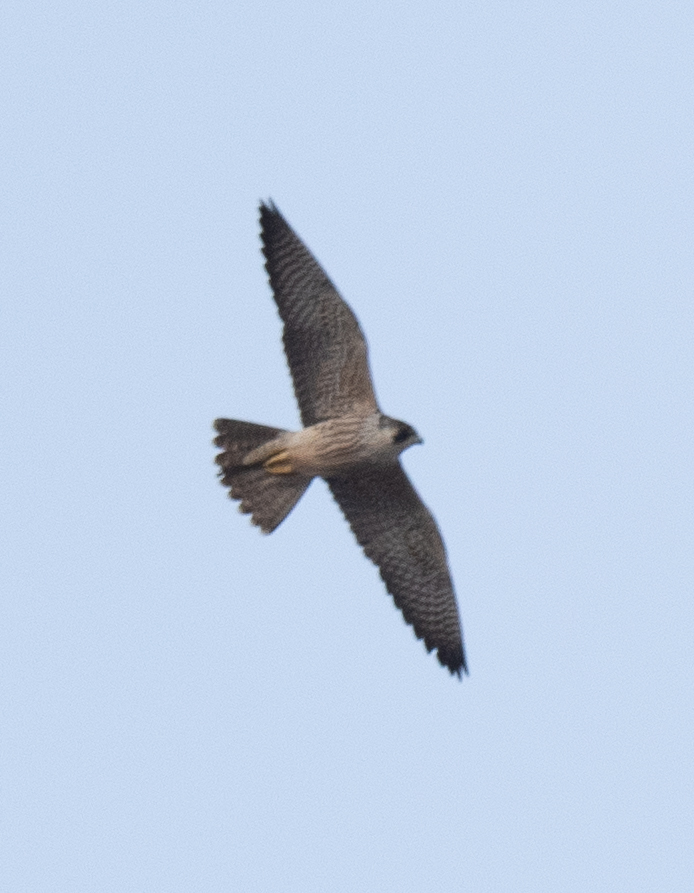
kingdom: Animalia
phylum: Chordata
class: Aves
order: Falconiformes
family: Falconidae
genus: Falco
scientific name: Falco peregrinus
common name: Peregrine falcon
